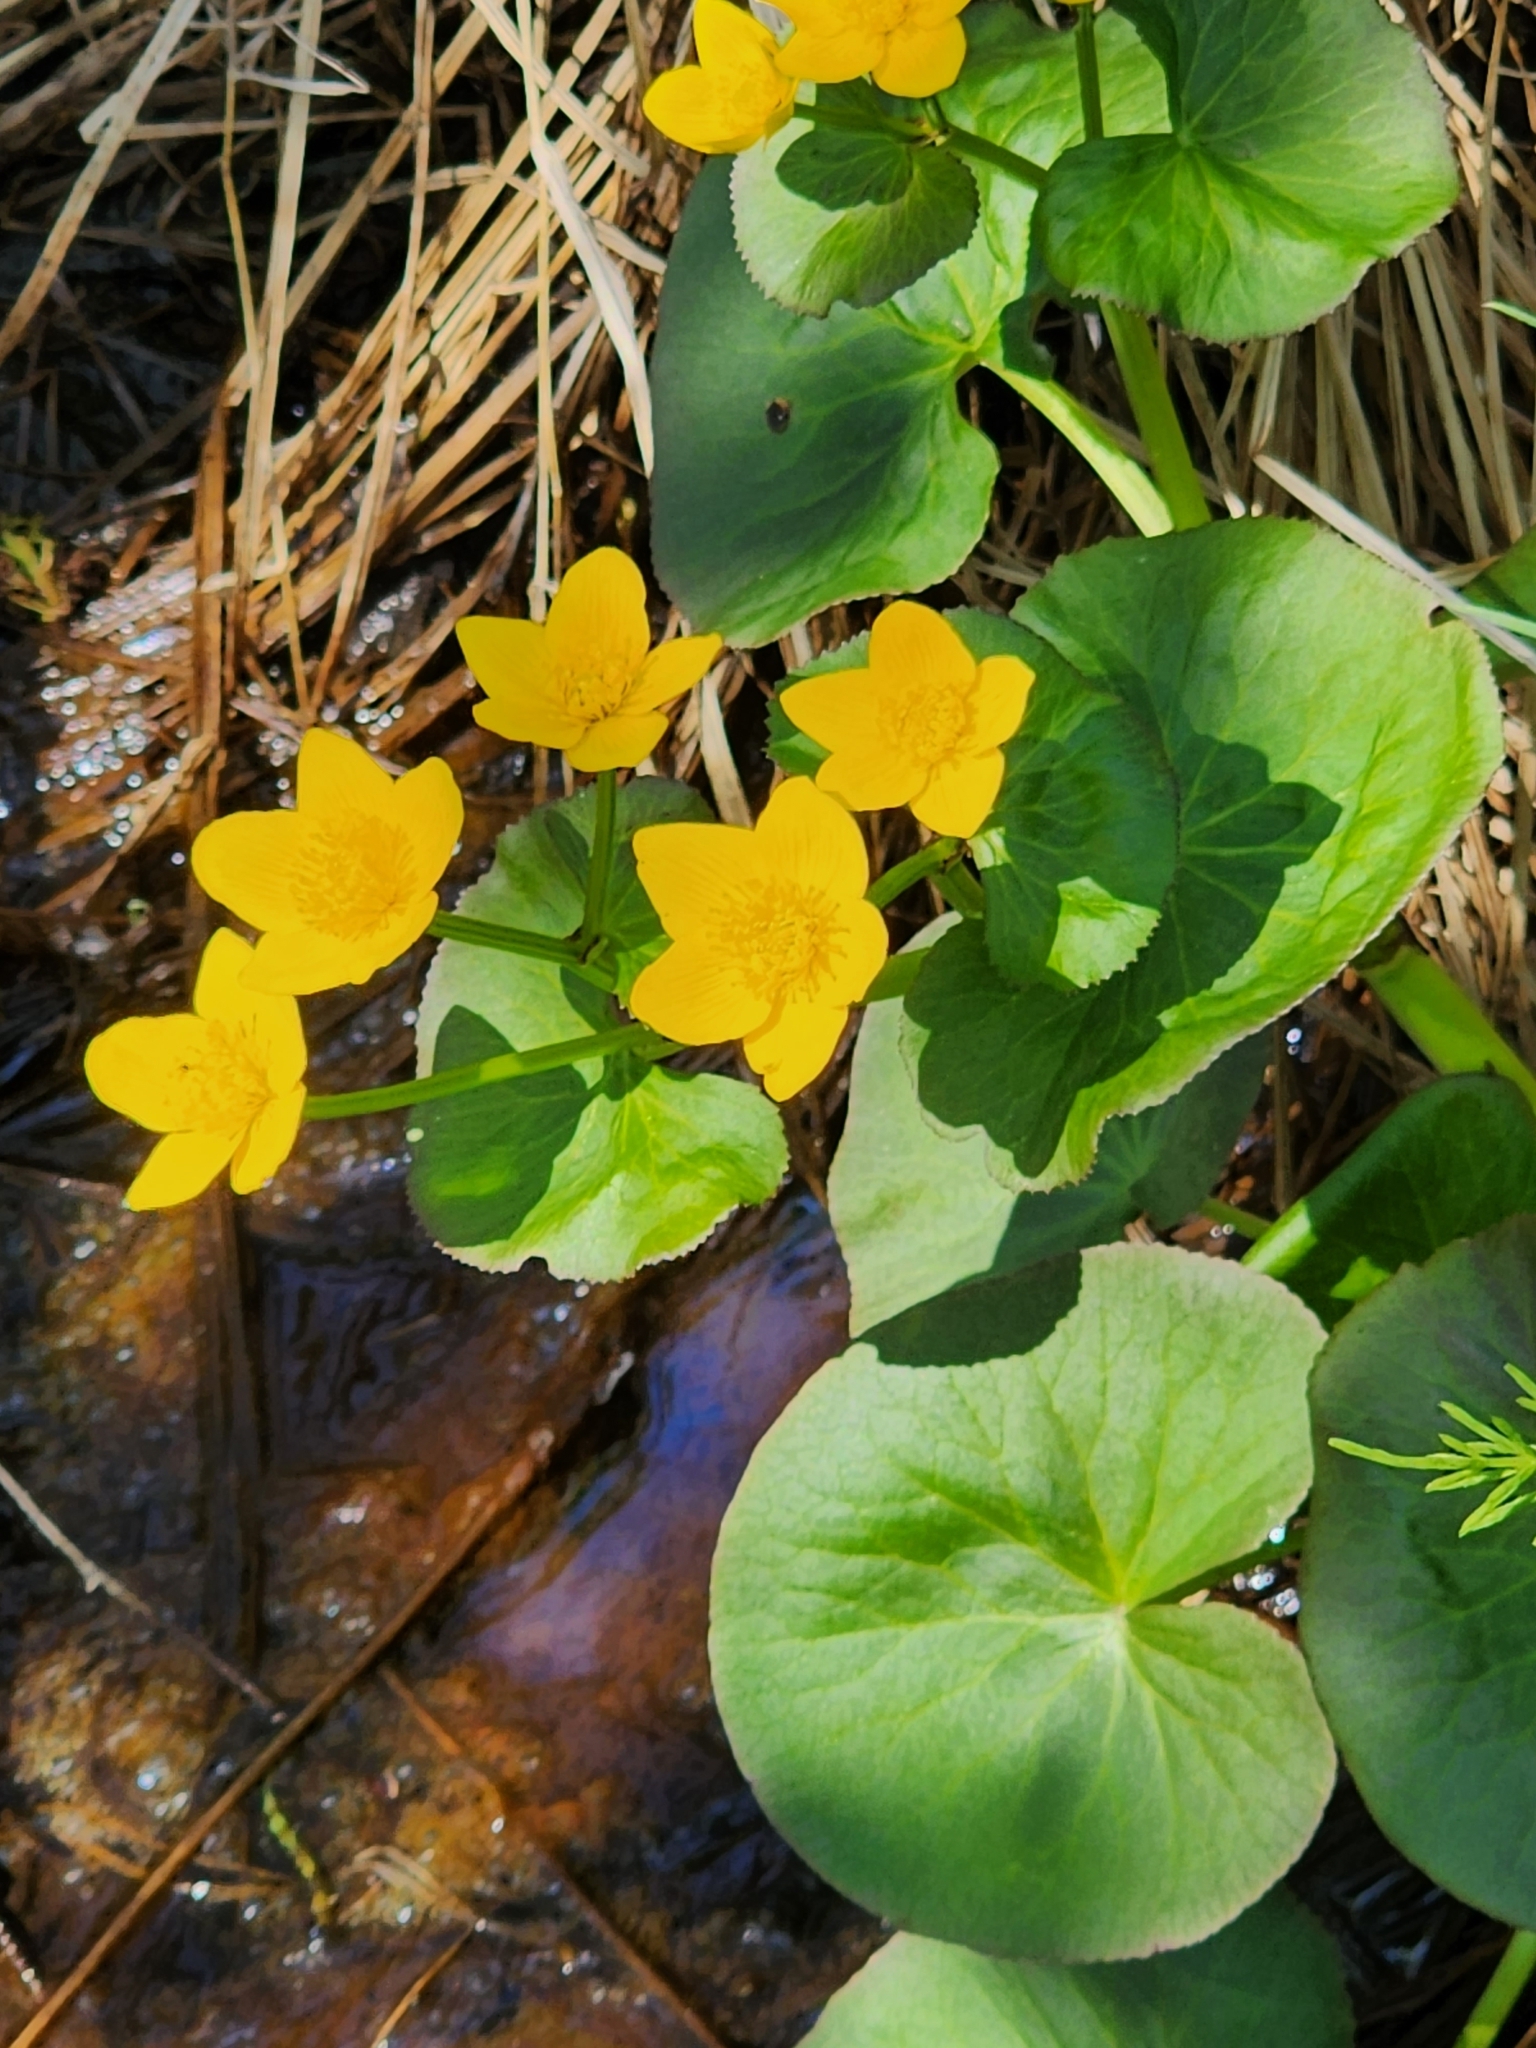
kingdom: Plantae
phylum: Tracheophyta
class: Magnoliopsida
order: Ranunculales
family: Ranunculaceae
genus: Caltha
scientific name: Caltha palustris
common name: Marsh marigold
